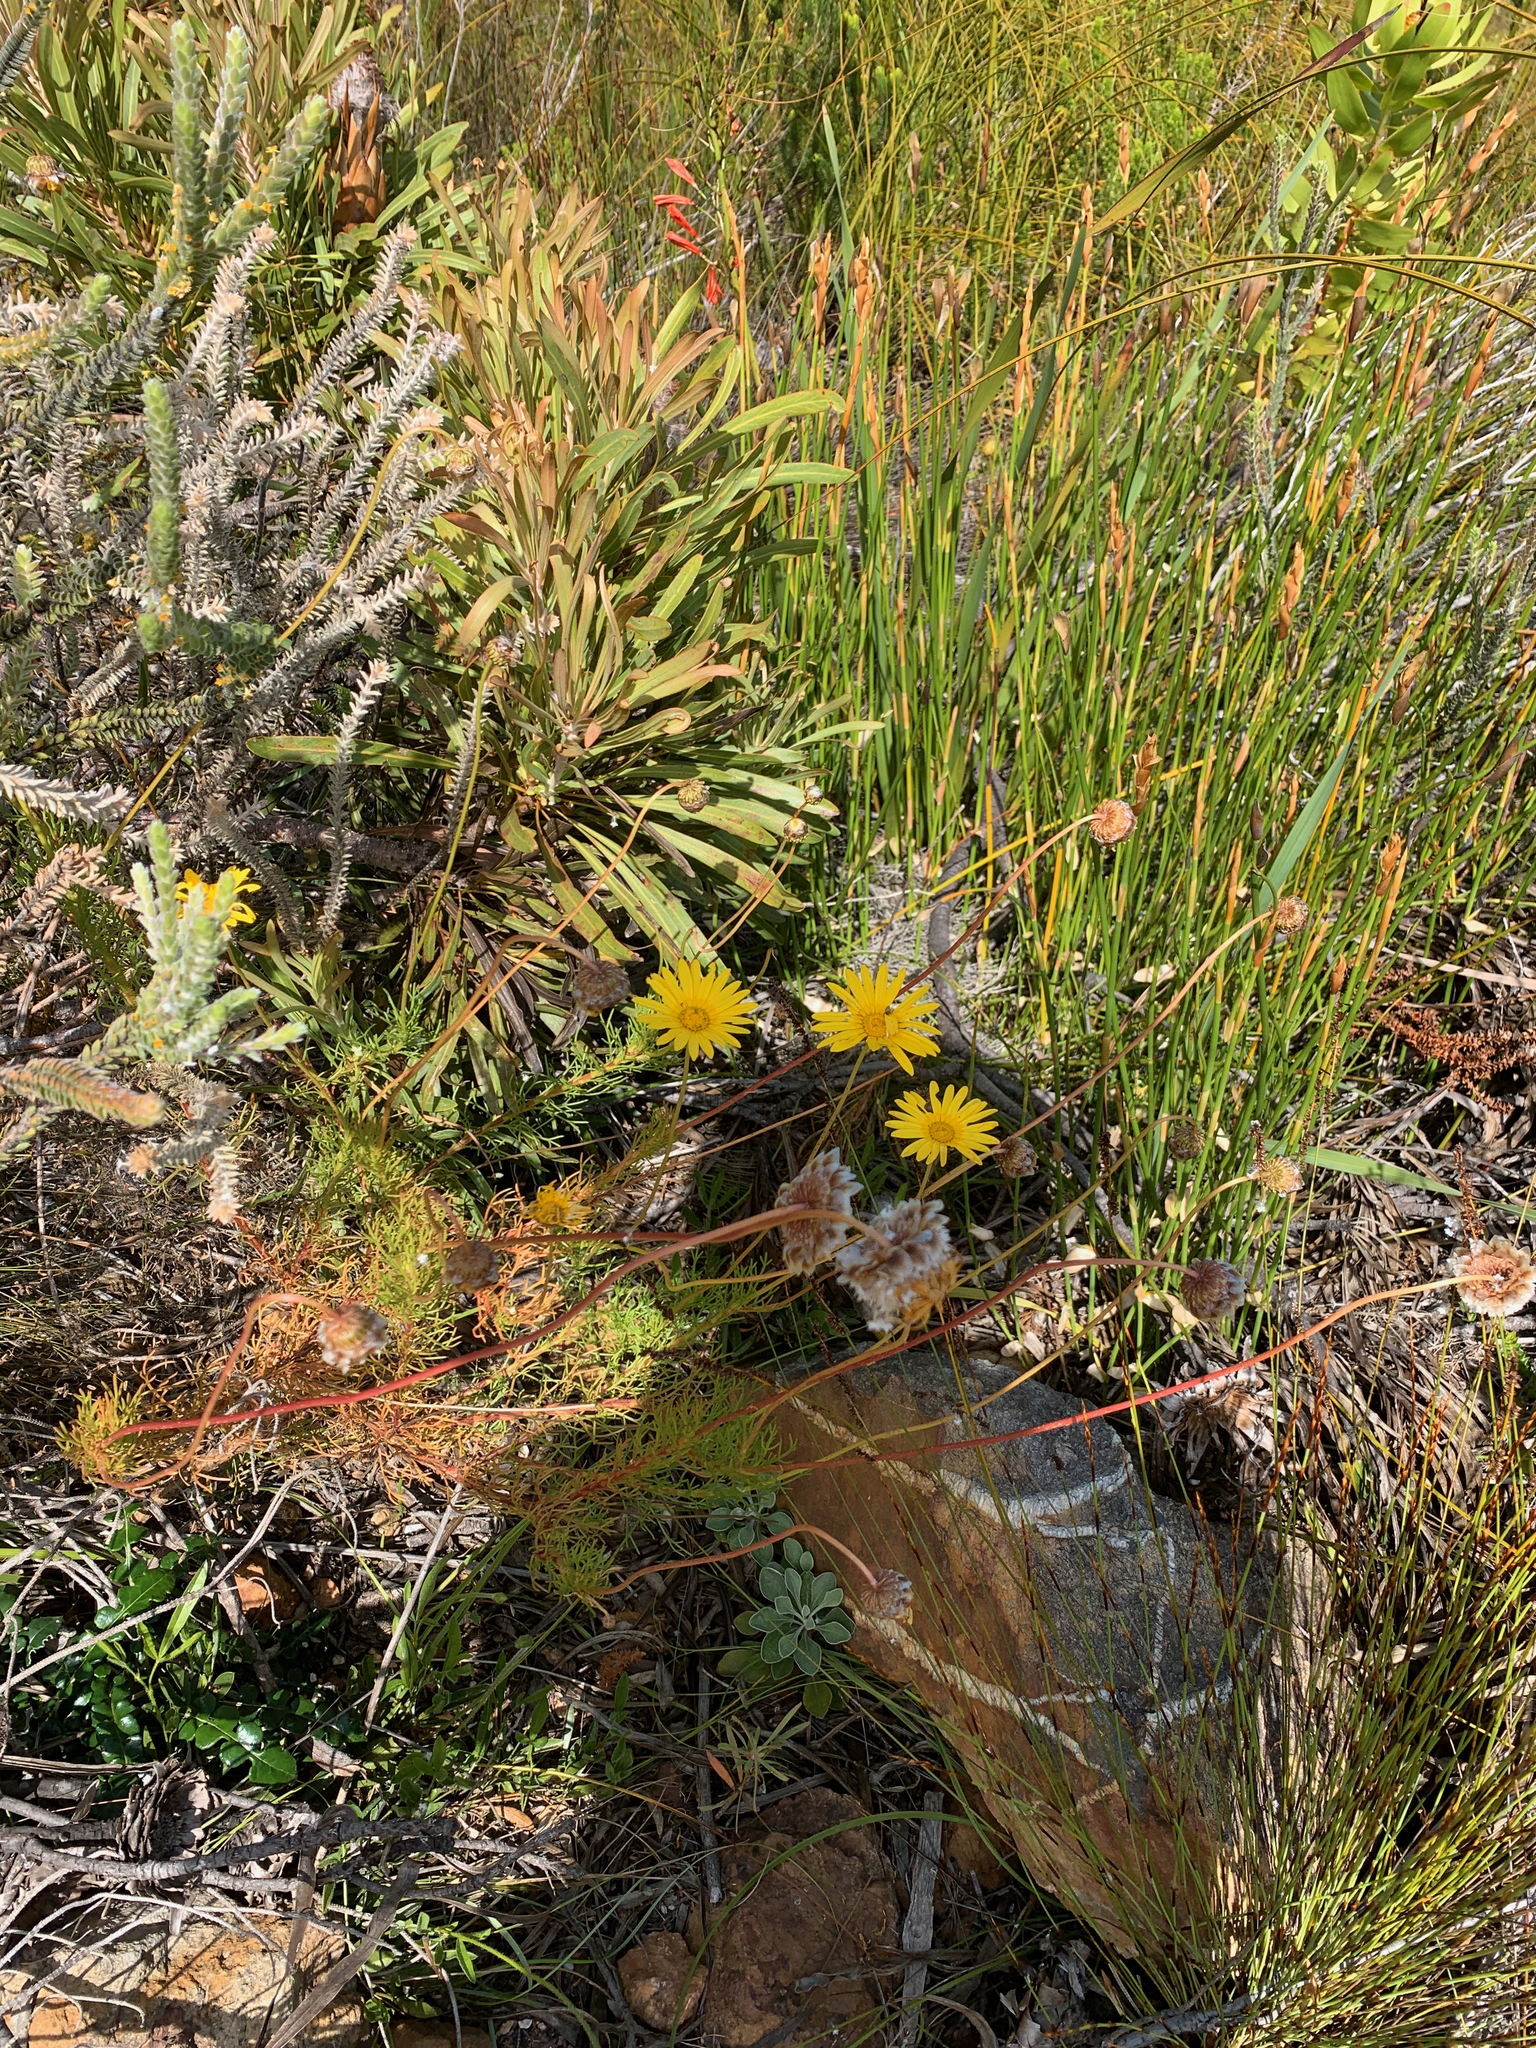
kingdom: Plantae
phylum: Tracheophyta
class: Magnoliopsida
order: Asterales
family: Asteraceae
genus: Ursinia
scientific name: Ursinia paleacea
